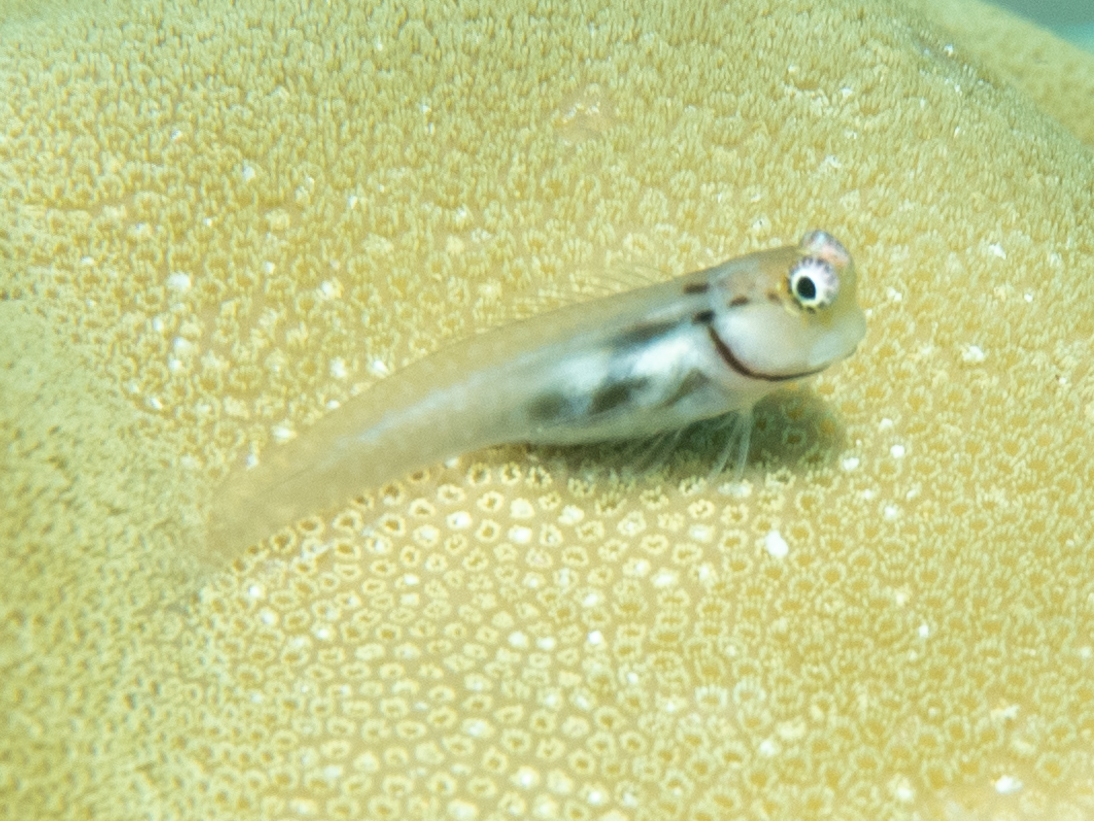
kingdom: Animalia
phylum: Chordata
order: Perciformes
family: Blenniidae
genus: Ecsenius
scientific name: Ecsenius minutus
